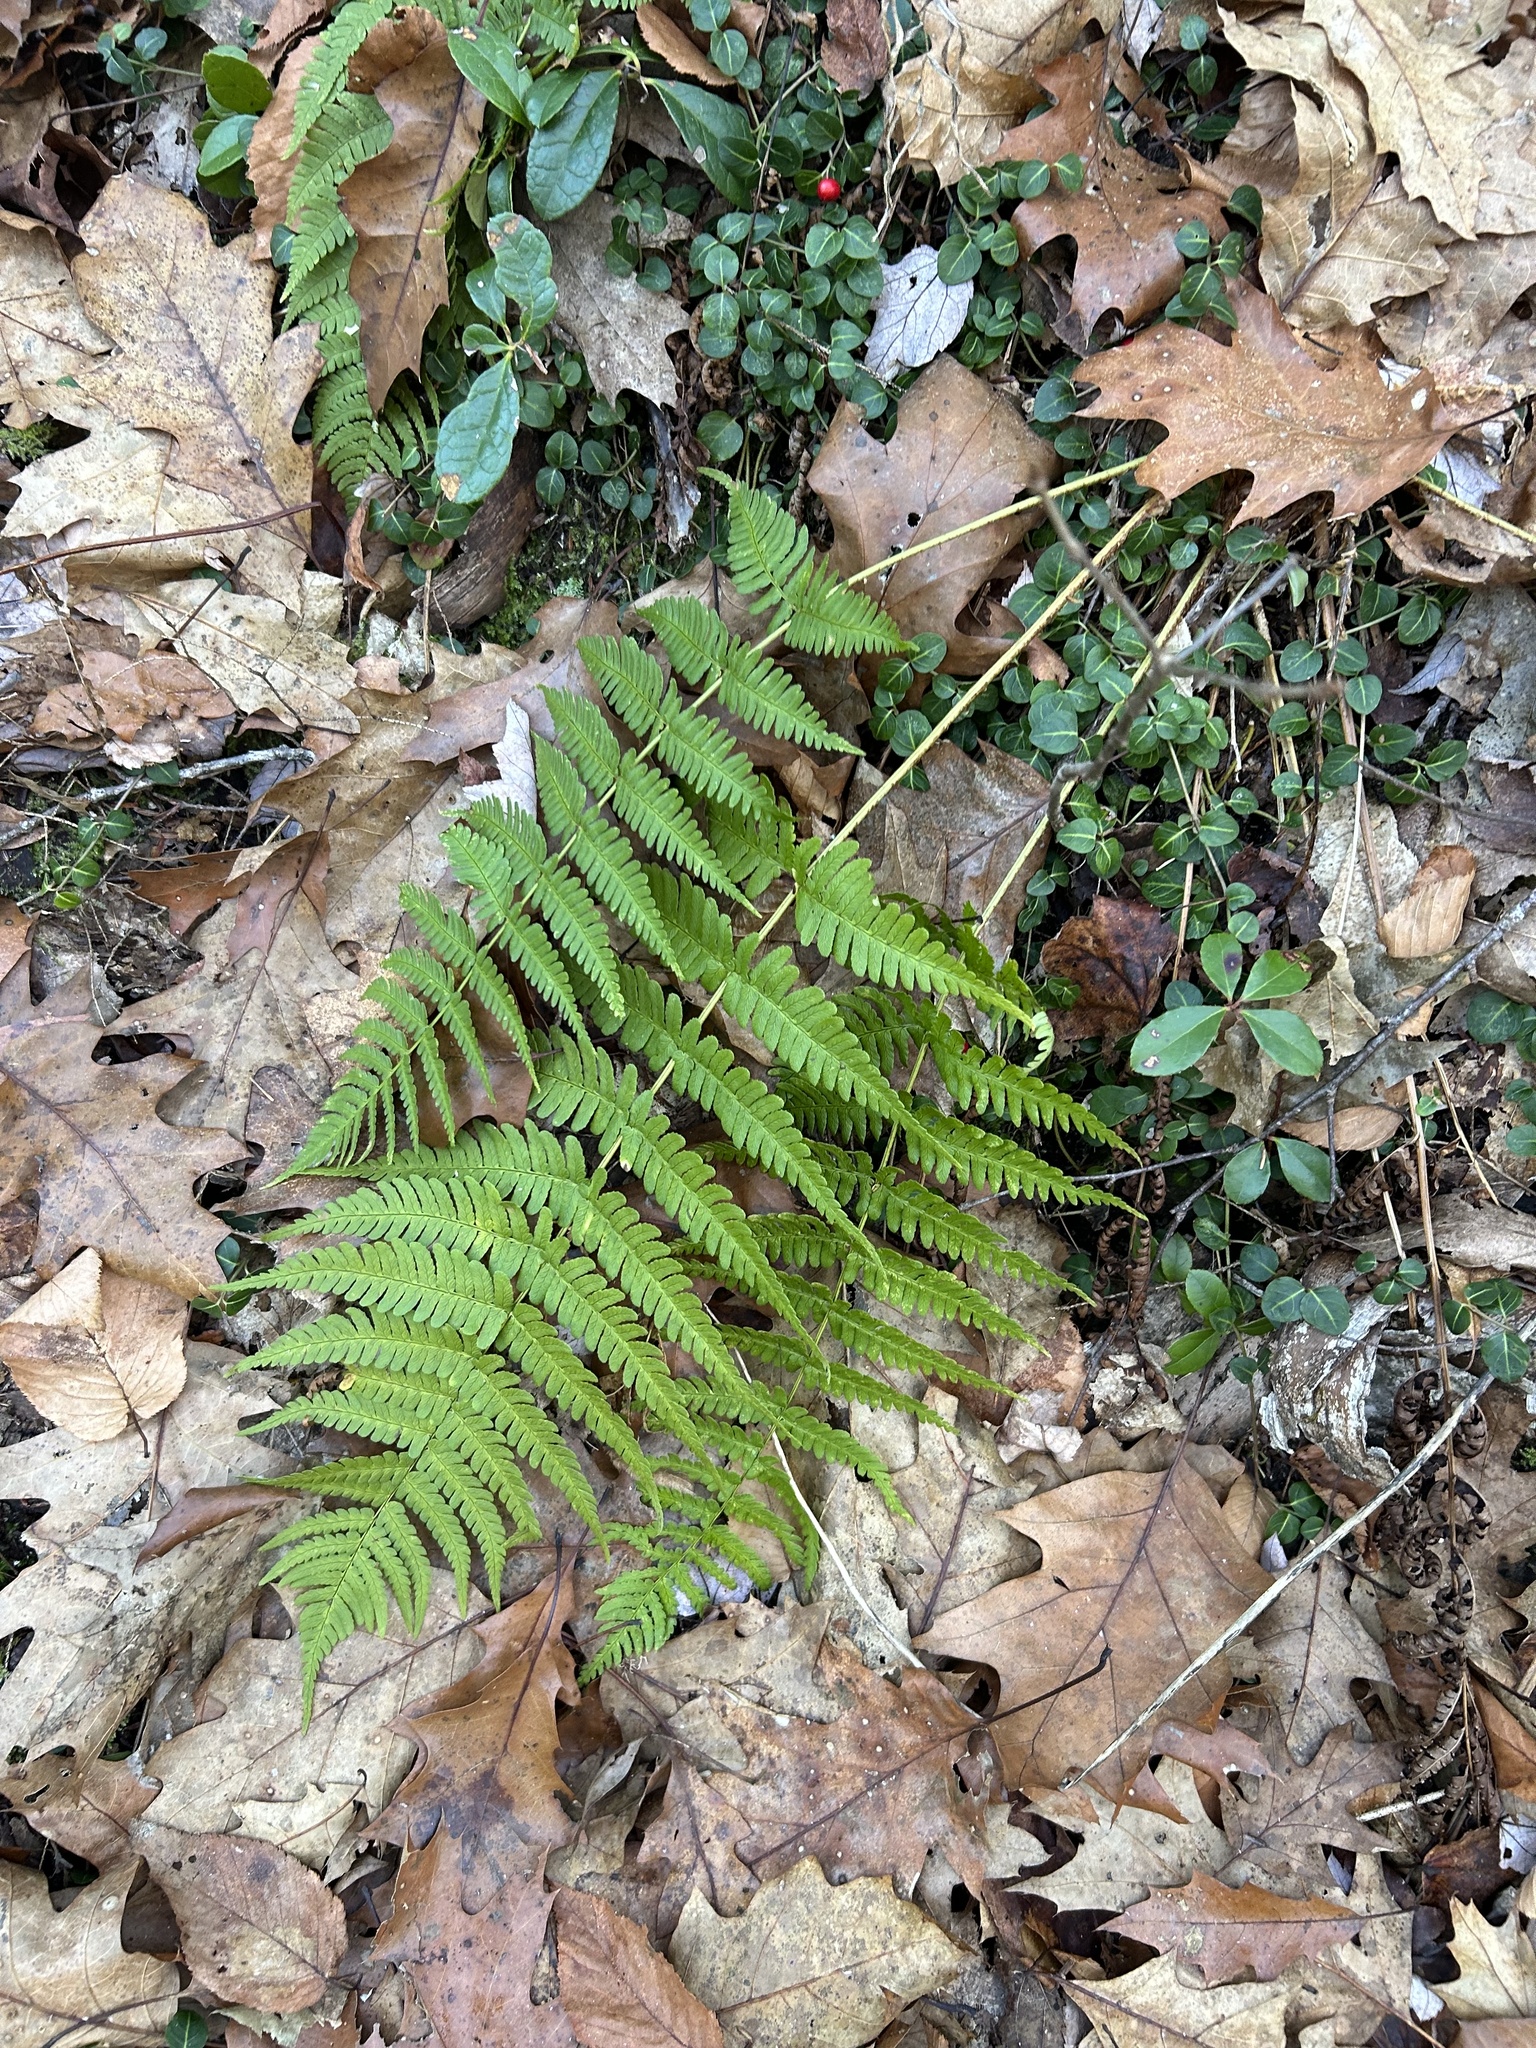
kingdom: Plantae
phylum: Tracheophyta
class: Polypodiopsida
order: Polypodiales
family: Dryopteridaceae
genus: Dryopteris
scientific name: Dryopteris marginalis
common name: Marginal wood fern
